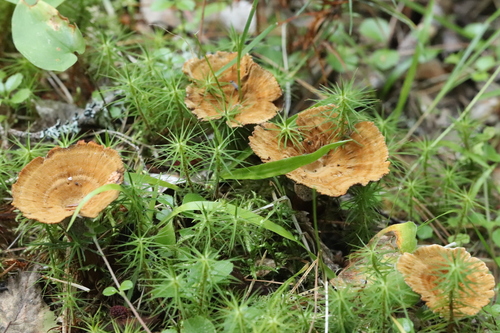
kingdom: Fungi
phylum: Basidiomycota
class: Agaricomycetes
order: Hymenochaetales
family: Hymenochaetaceae
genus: Coltricia
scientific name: Coltricia perennis
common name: Tiger's eye
